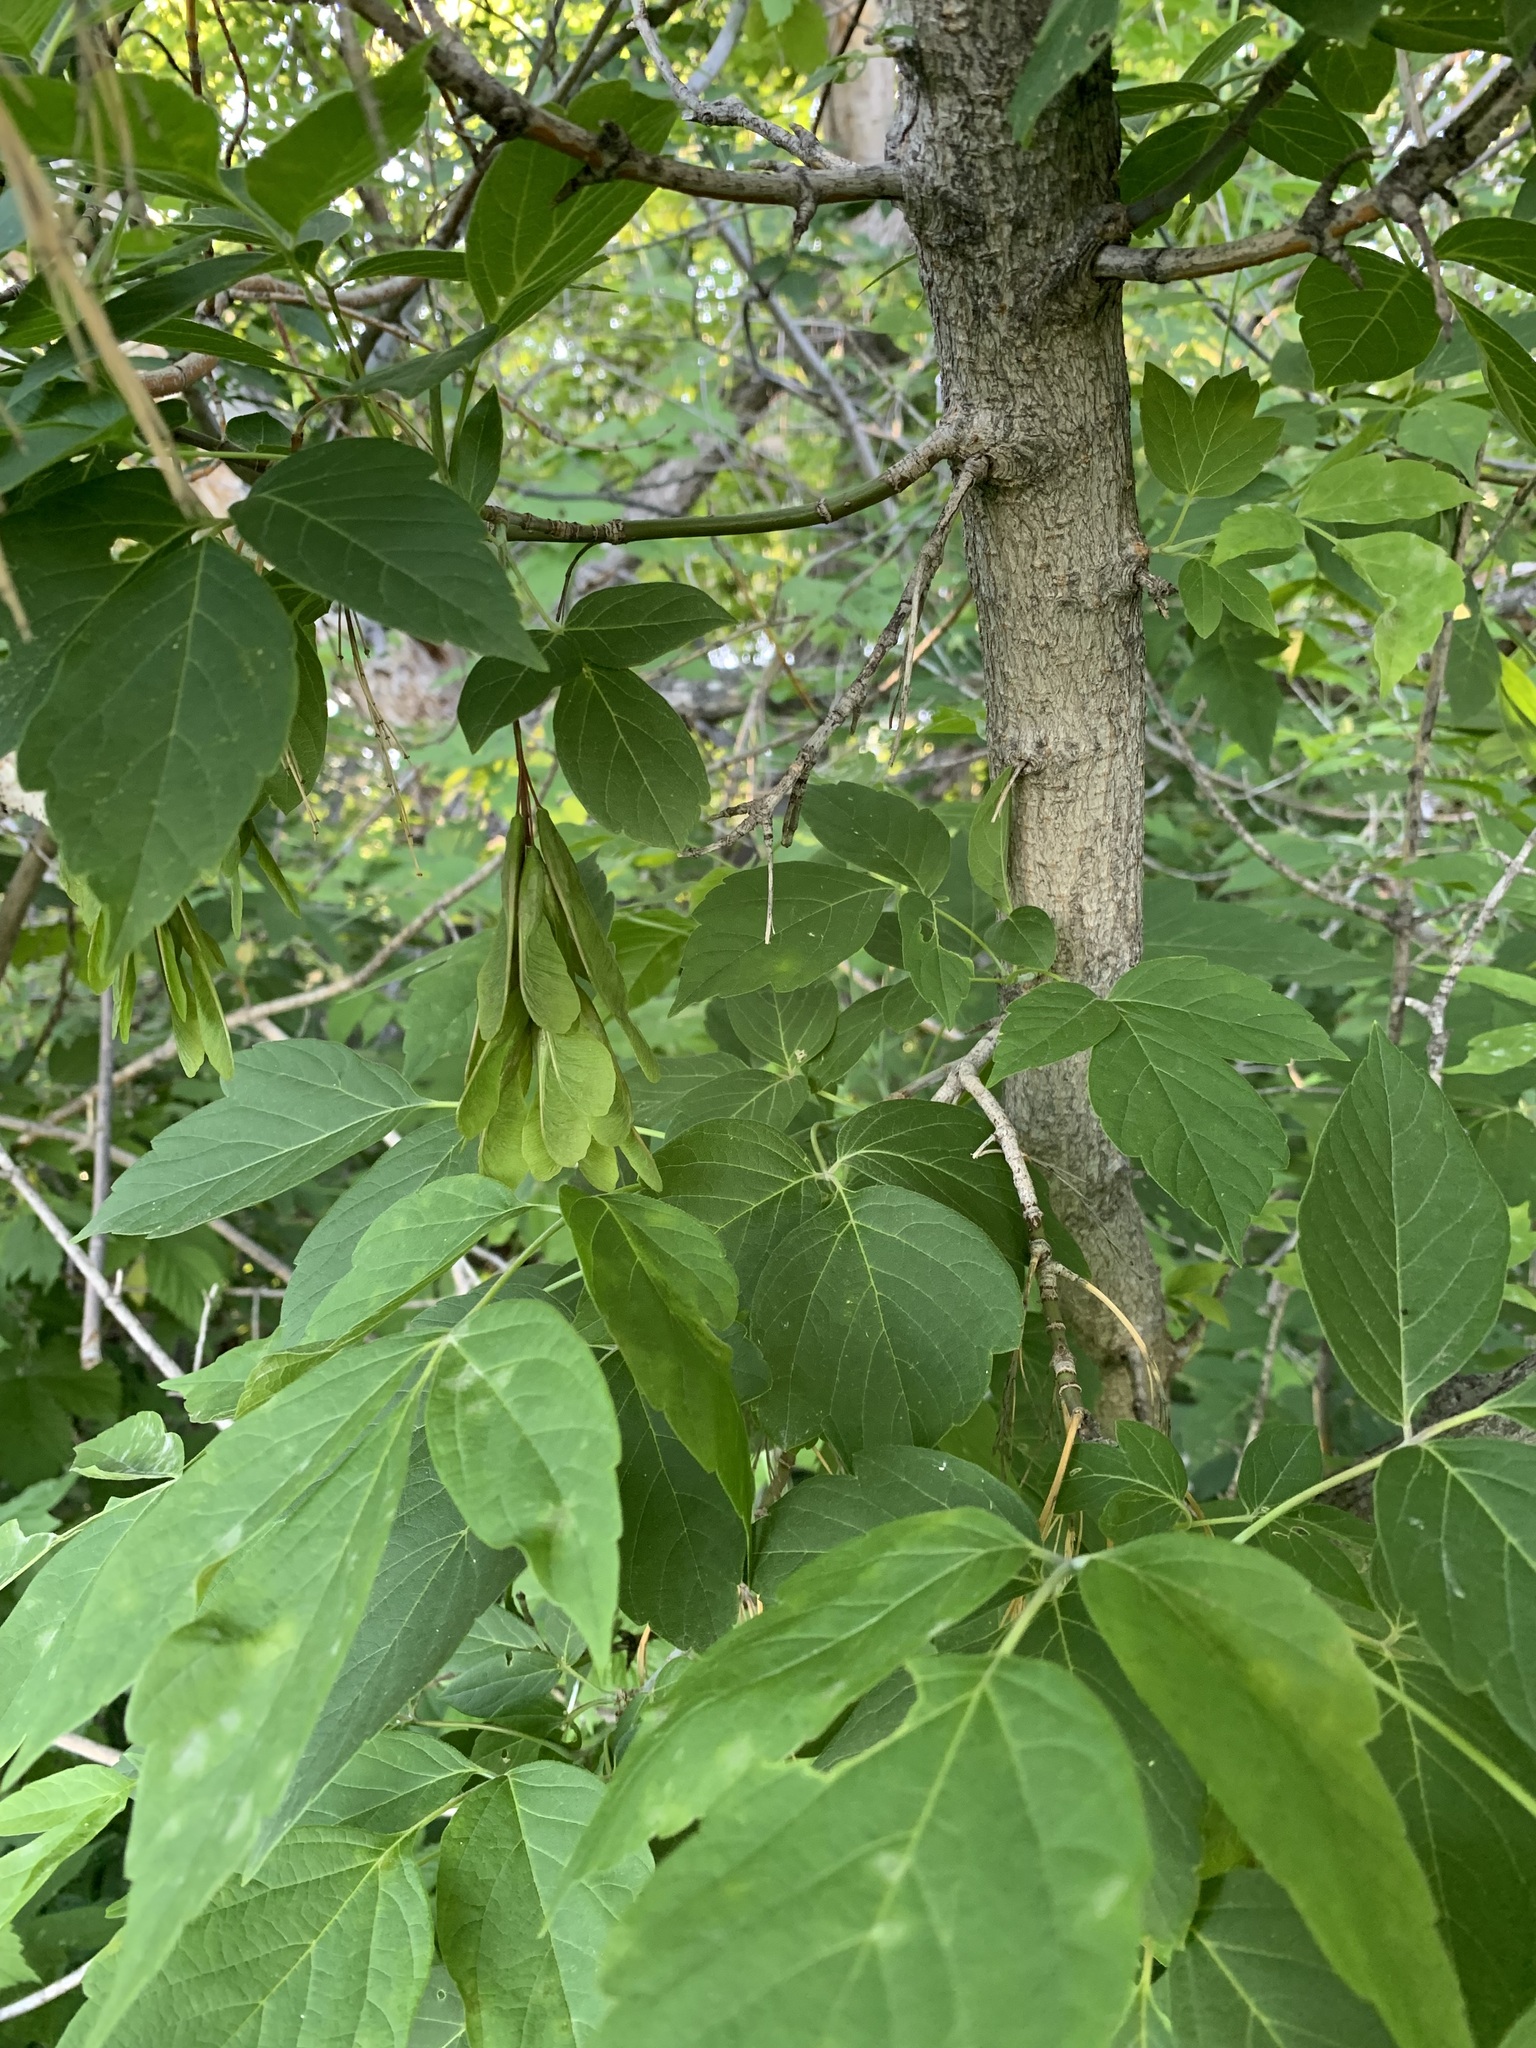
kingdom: Plantae
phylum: Tracheophyta
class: Magnoliopsida
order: Sapindales
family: Sapindaceae
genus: Acer
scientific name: Acer negundo
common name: Ashleaf maple
